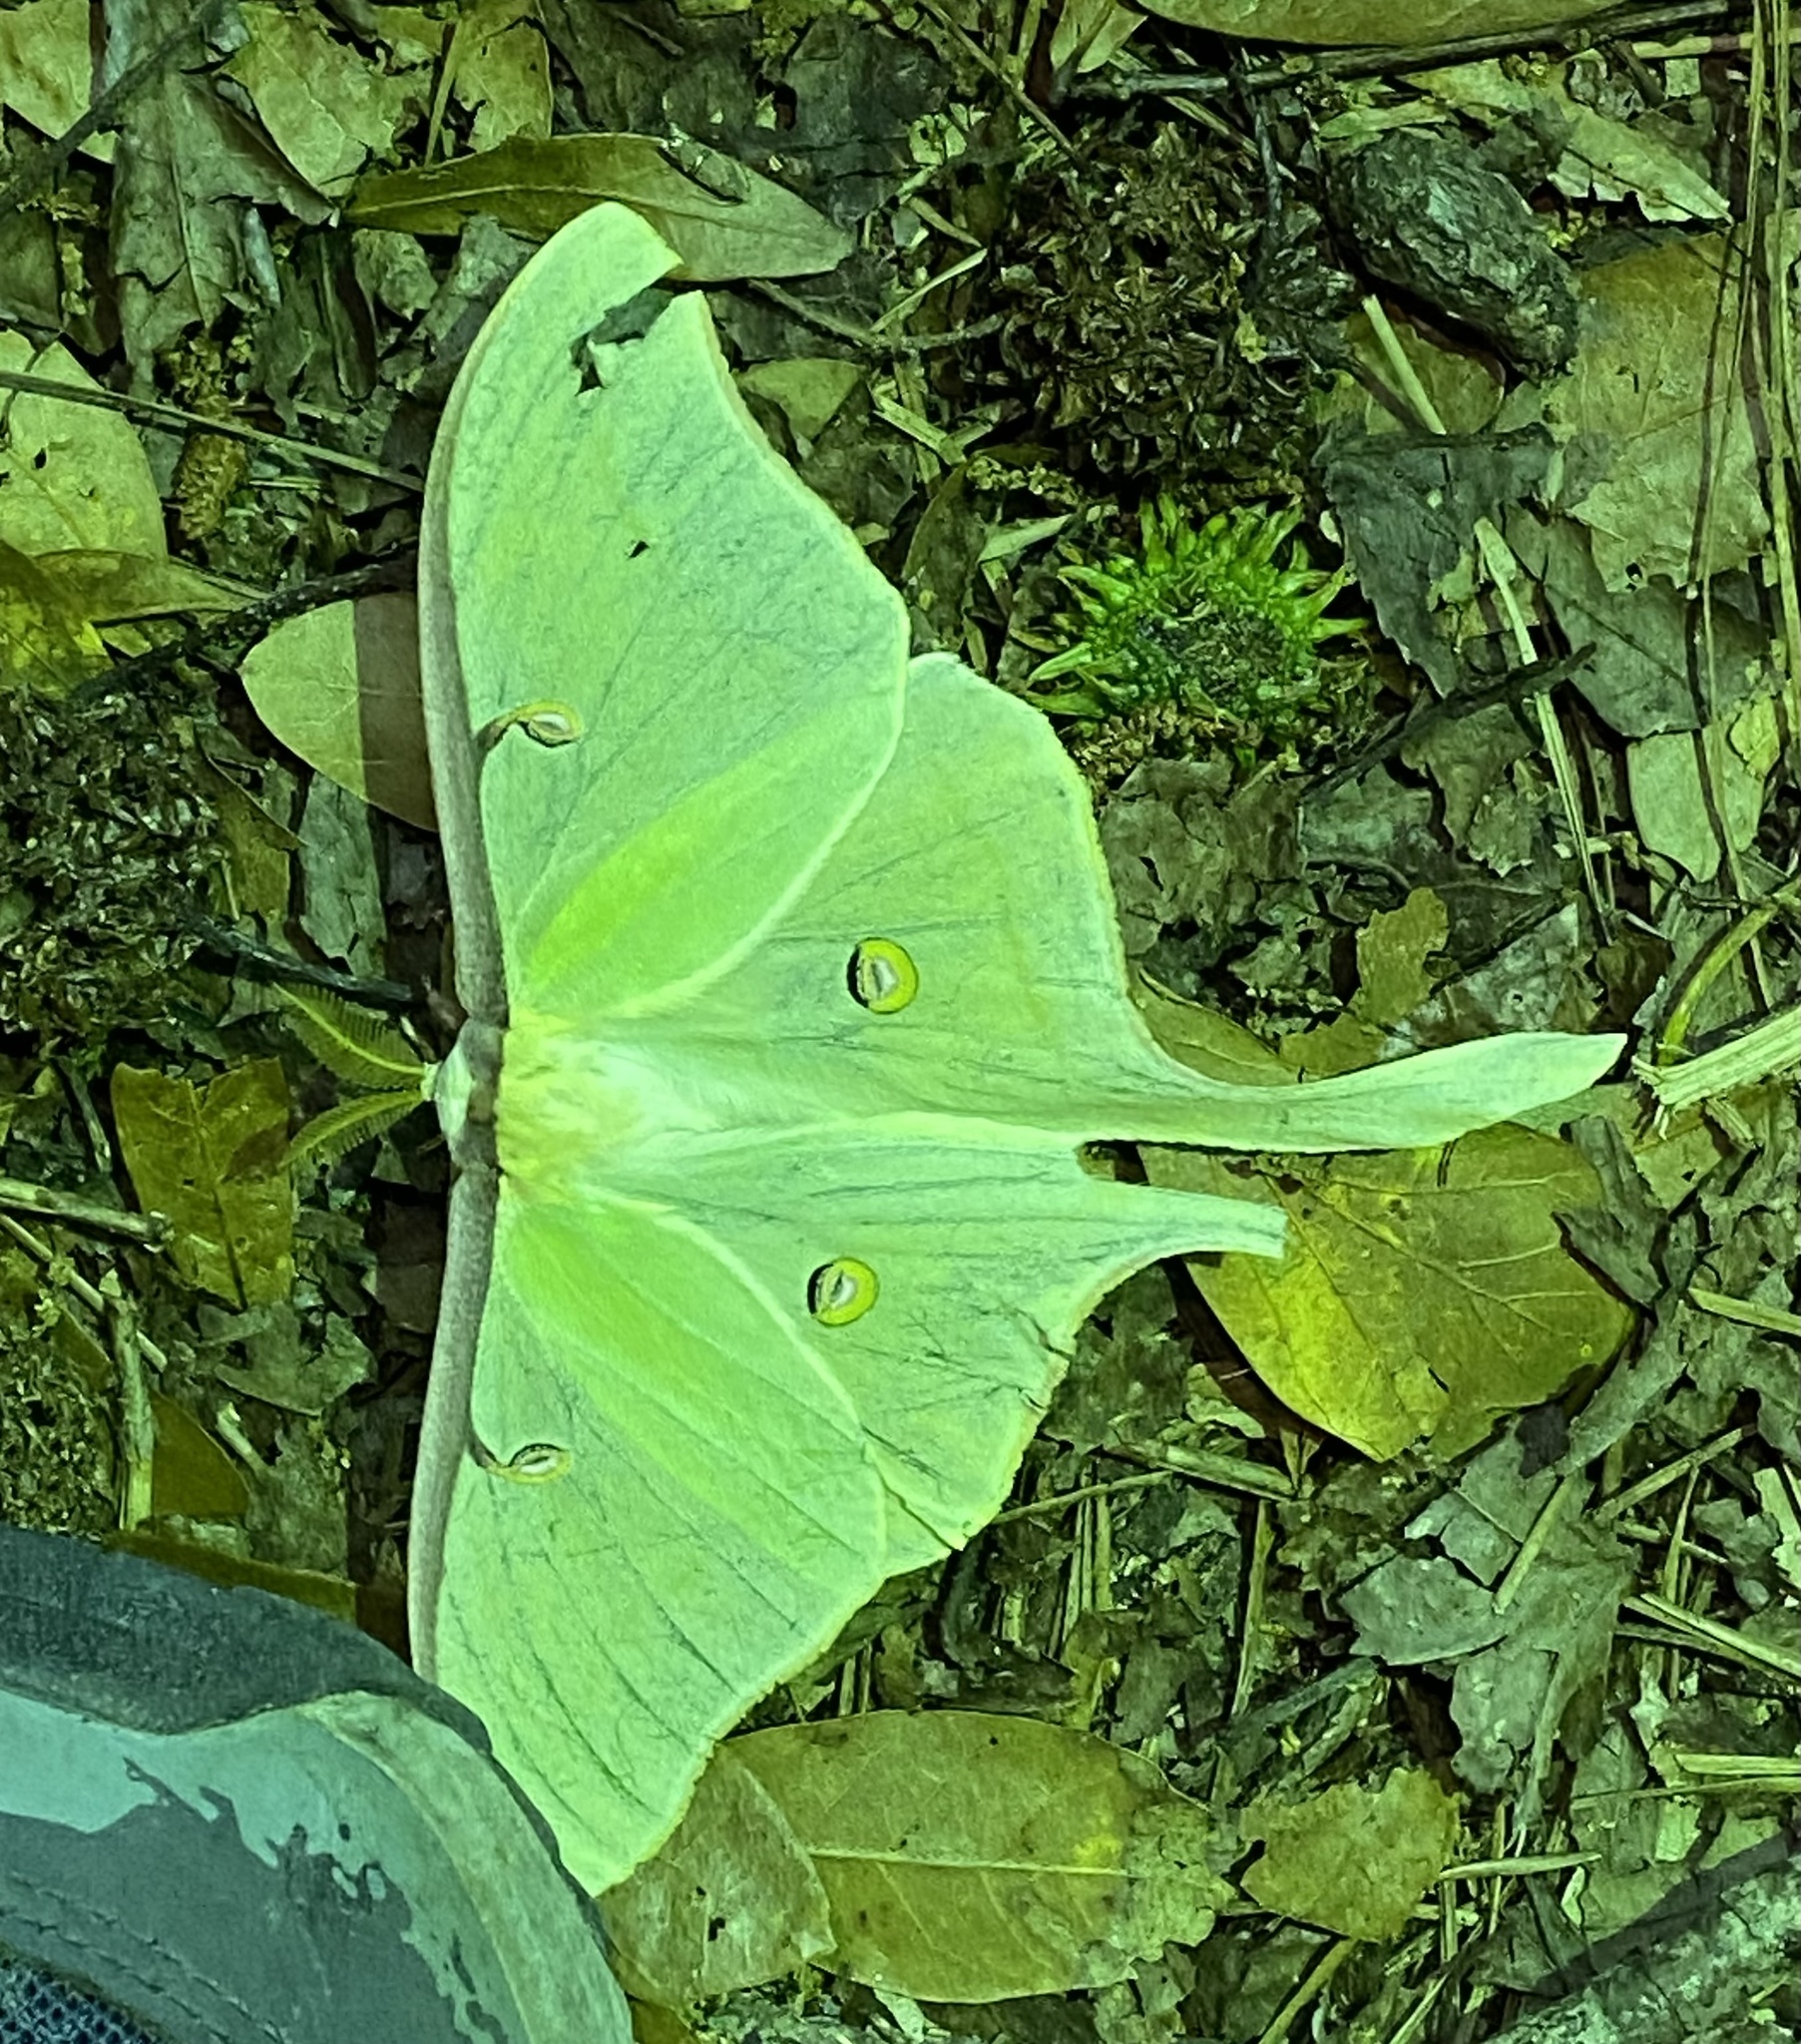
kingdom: Animalia
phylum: Arthropoda
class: Insecta
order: Lepidoptera
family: Saturniidae
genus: Actias
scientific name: Actias luna
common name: Luna moth
